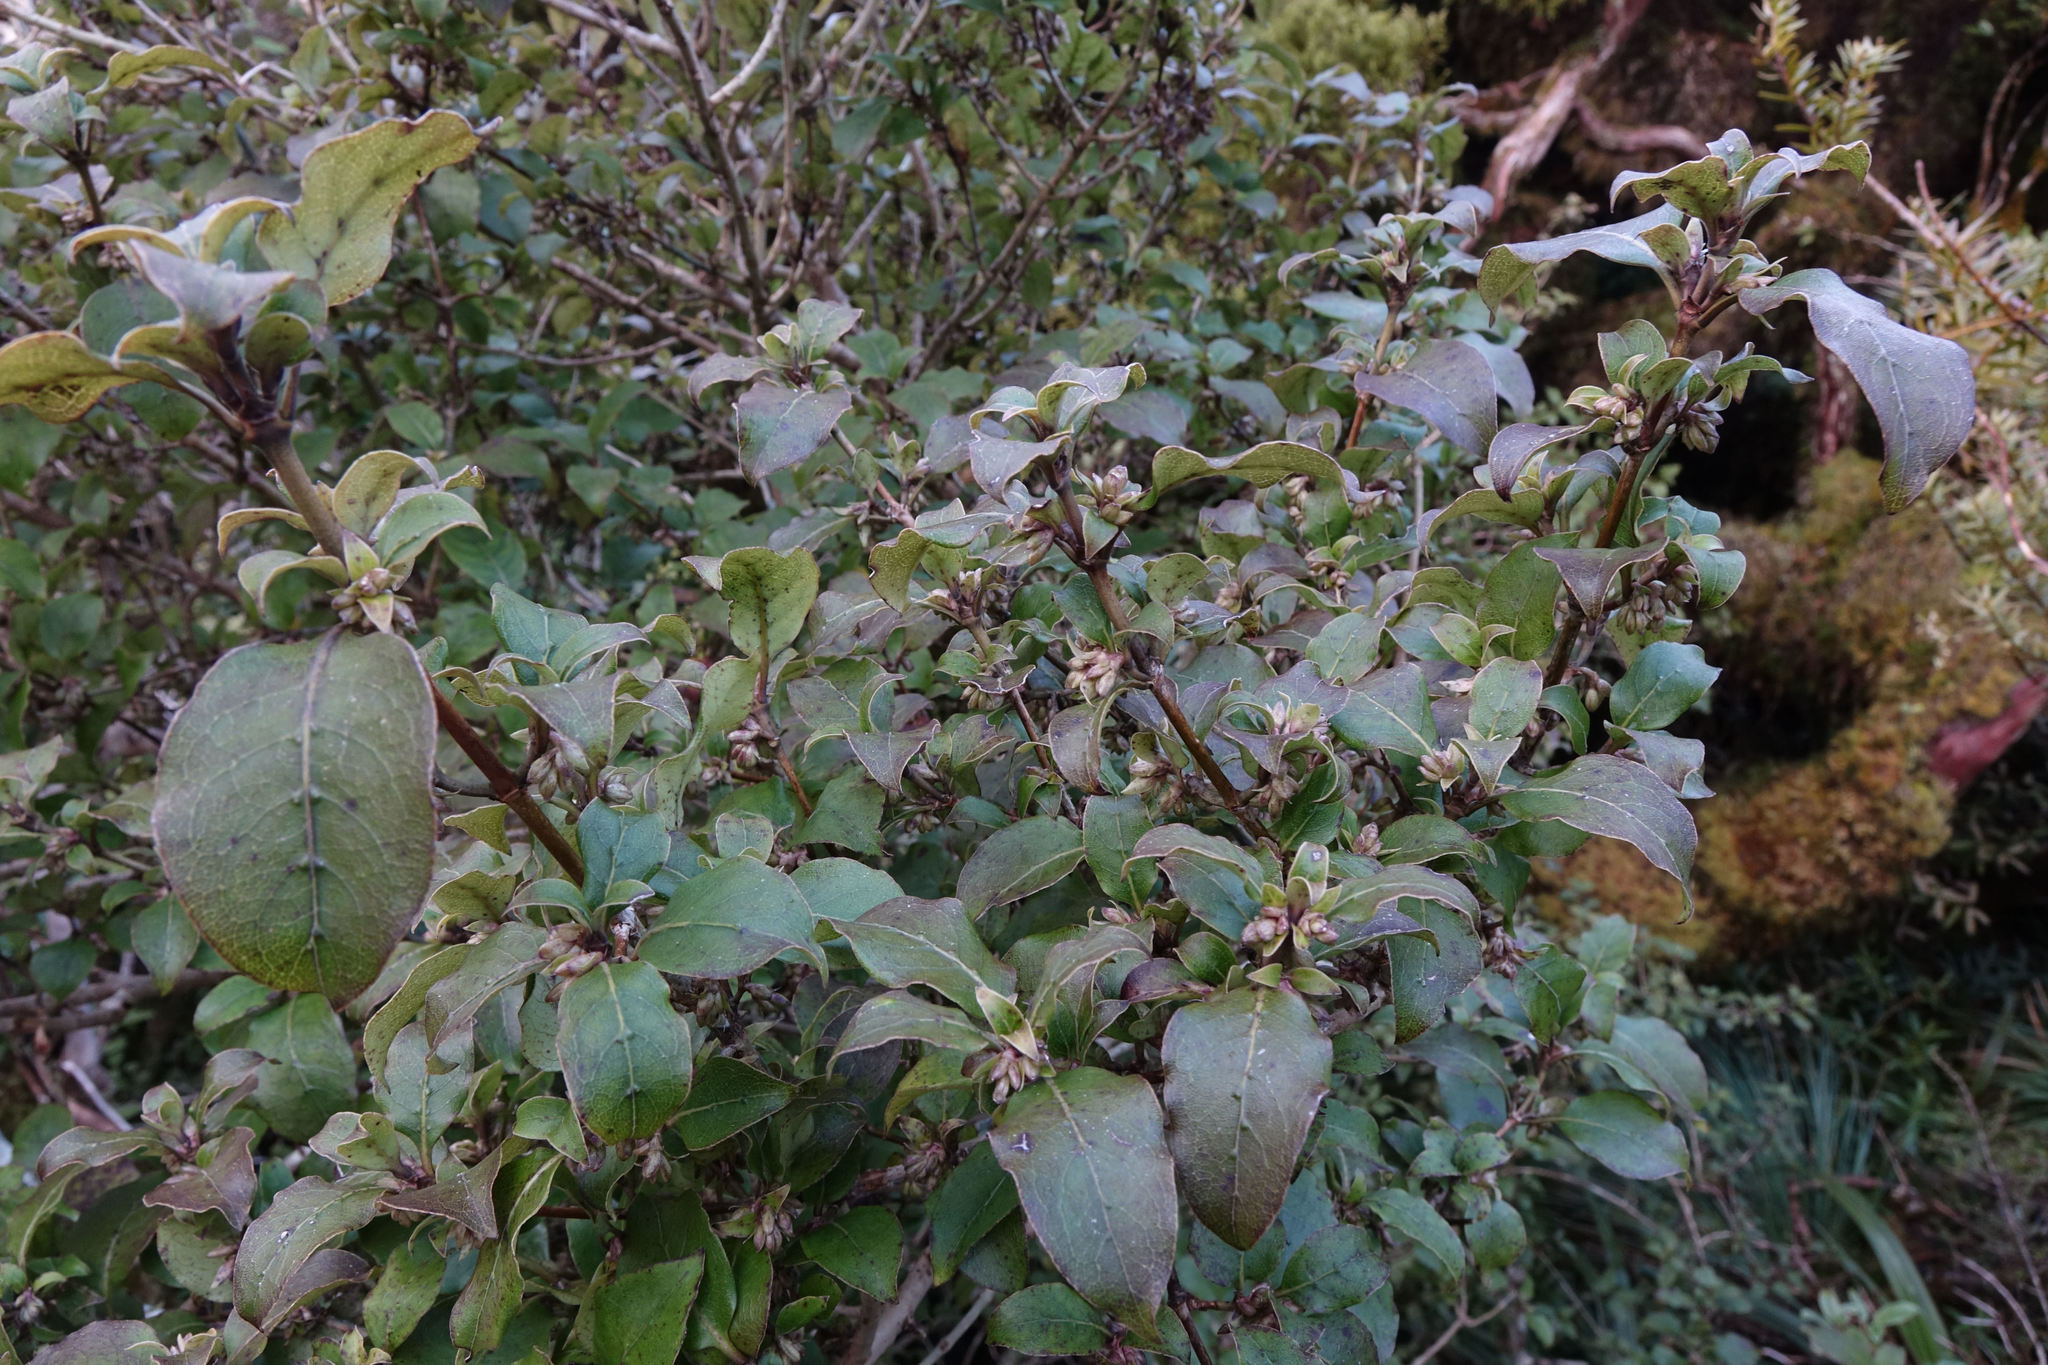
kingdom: Plantae
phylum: Tracheophyta
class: Magnoliopsida
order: Gentianales
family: Rubiaceae
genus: Coprosma
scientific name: Coprosma tenuifolia
